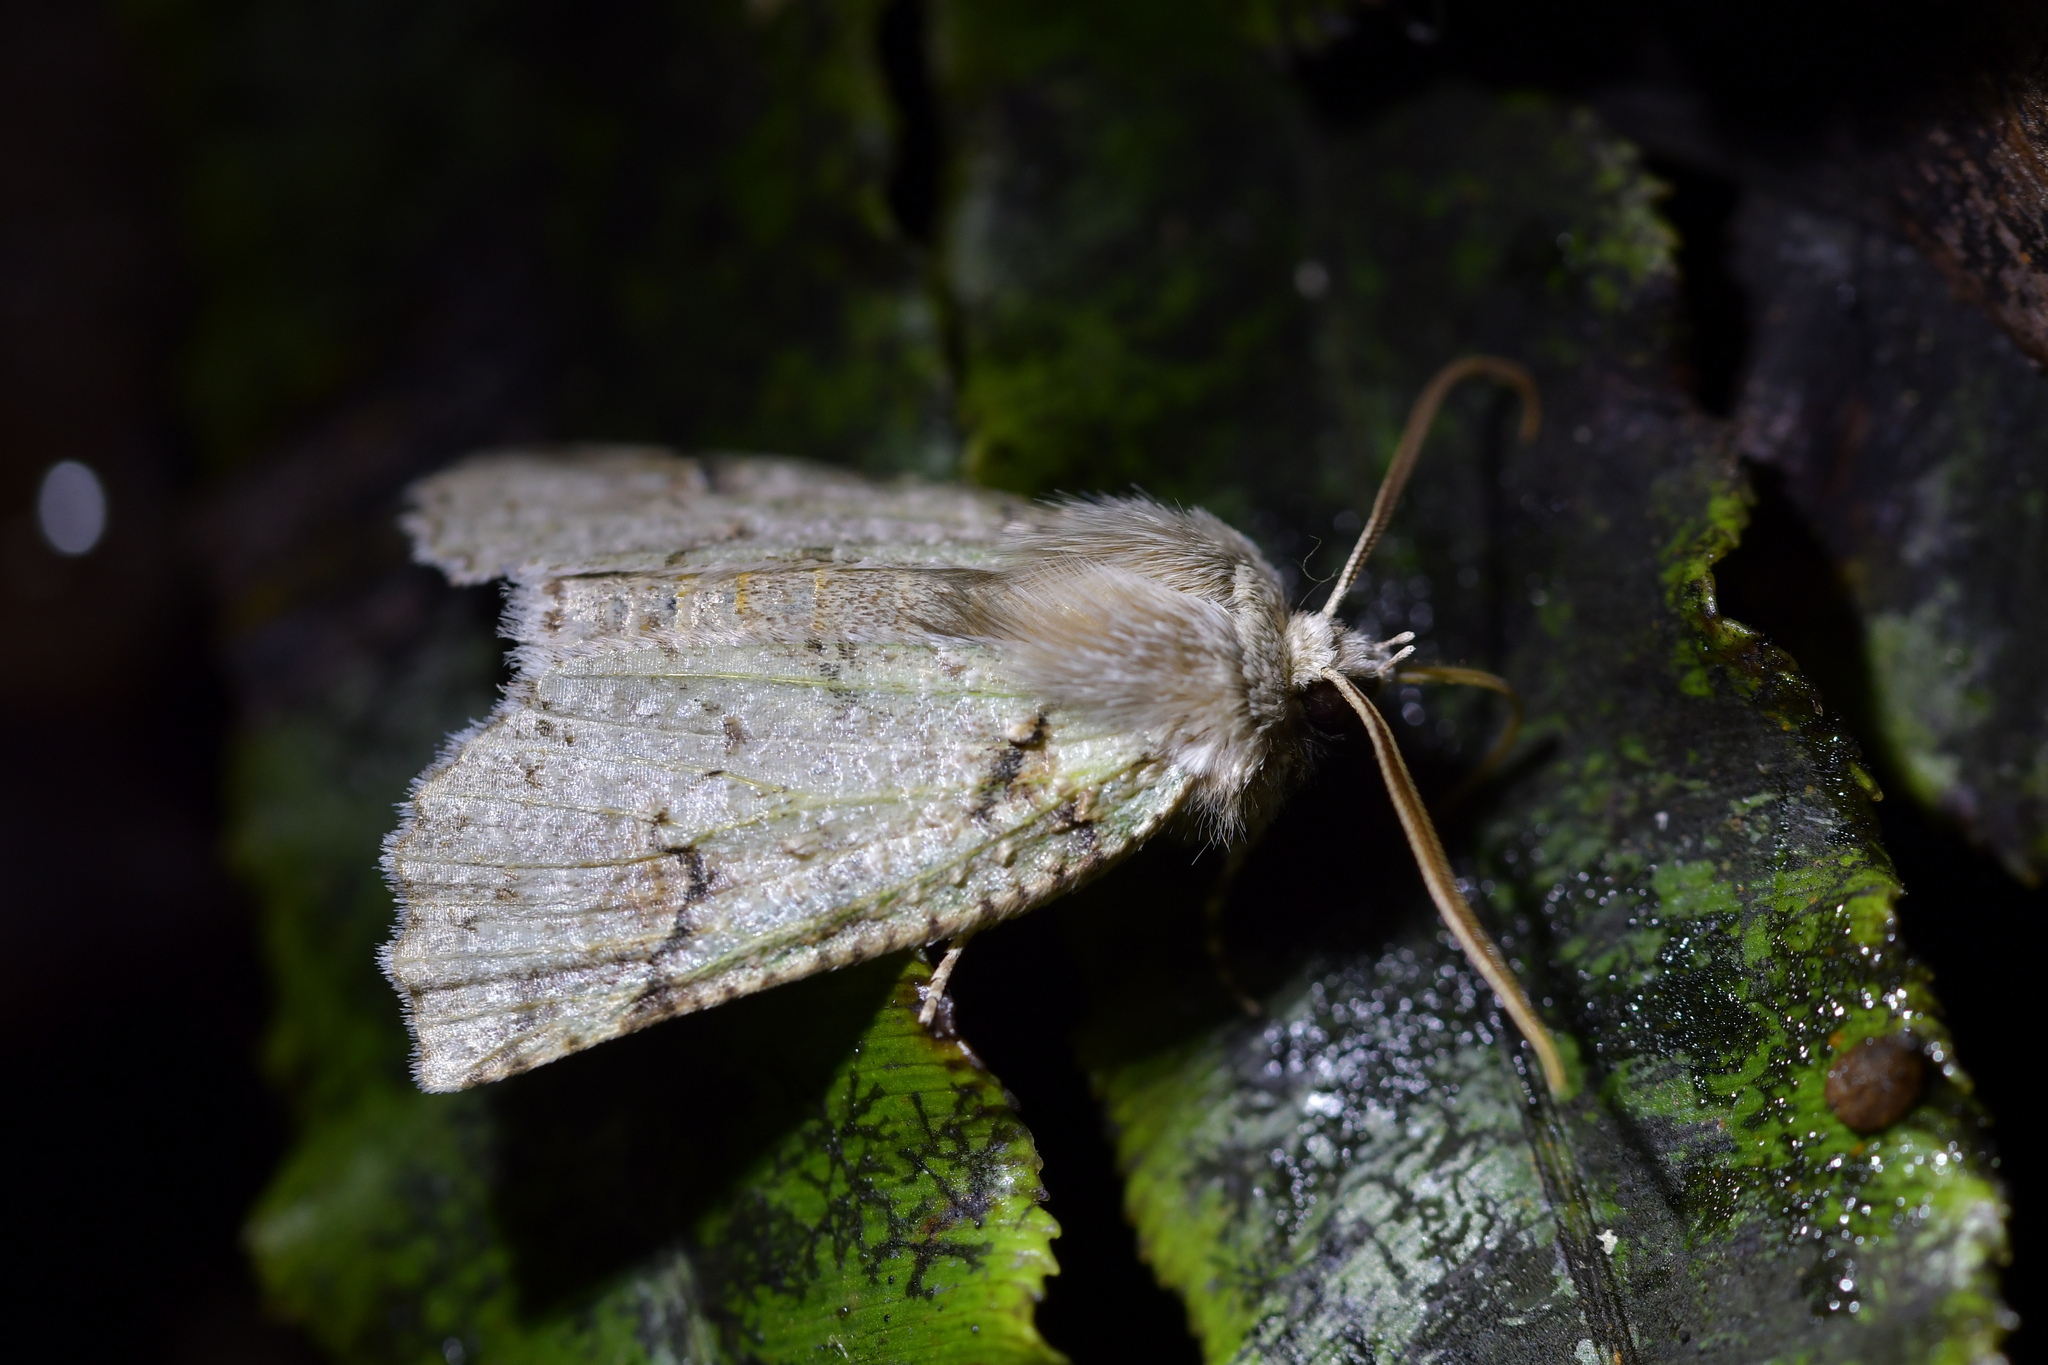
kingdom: Animalia
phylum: Arthropoda
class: Insecta
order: Lepidoptera
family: Geometridae
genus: Declana
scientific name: Declana floccosa
